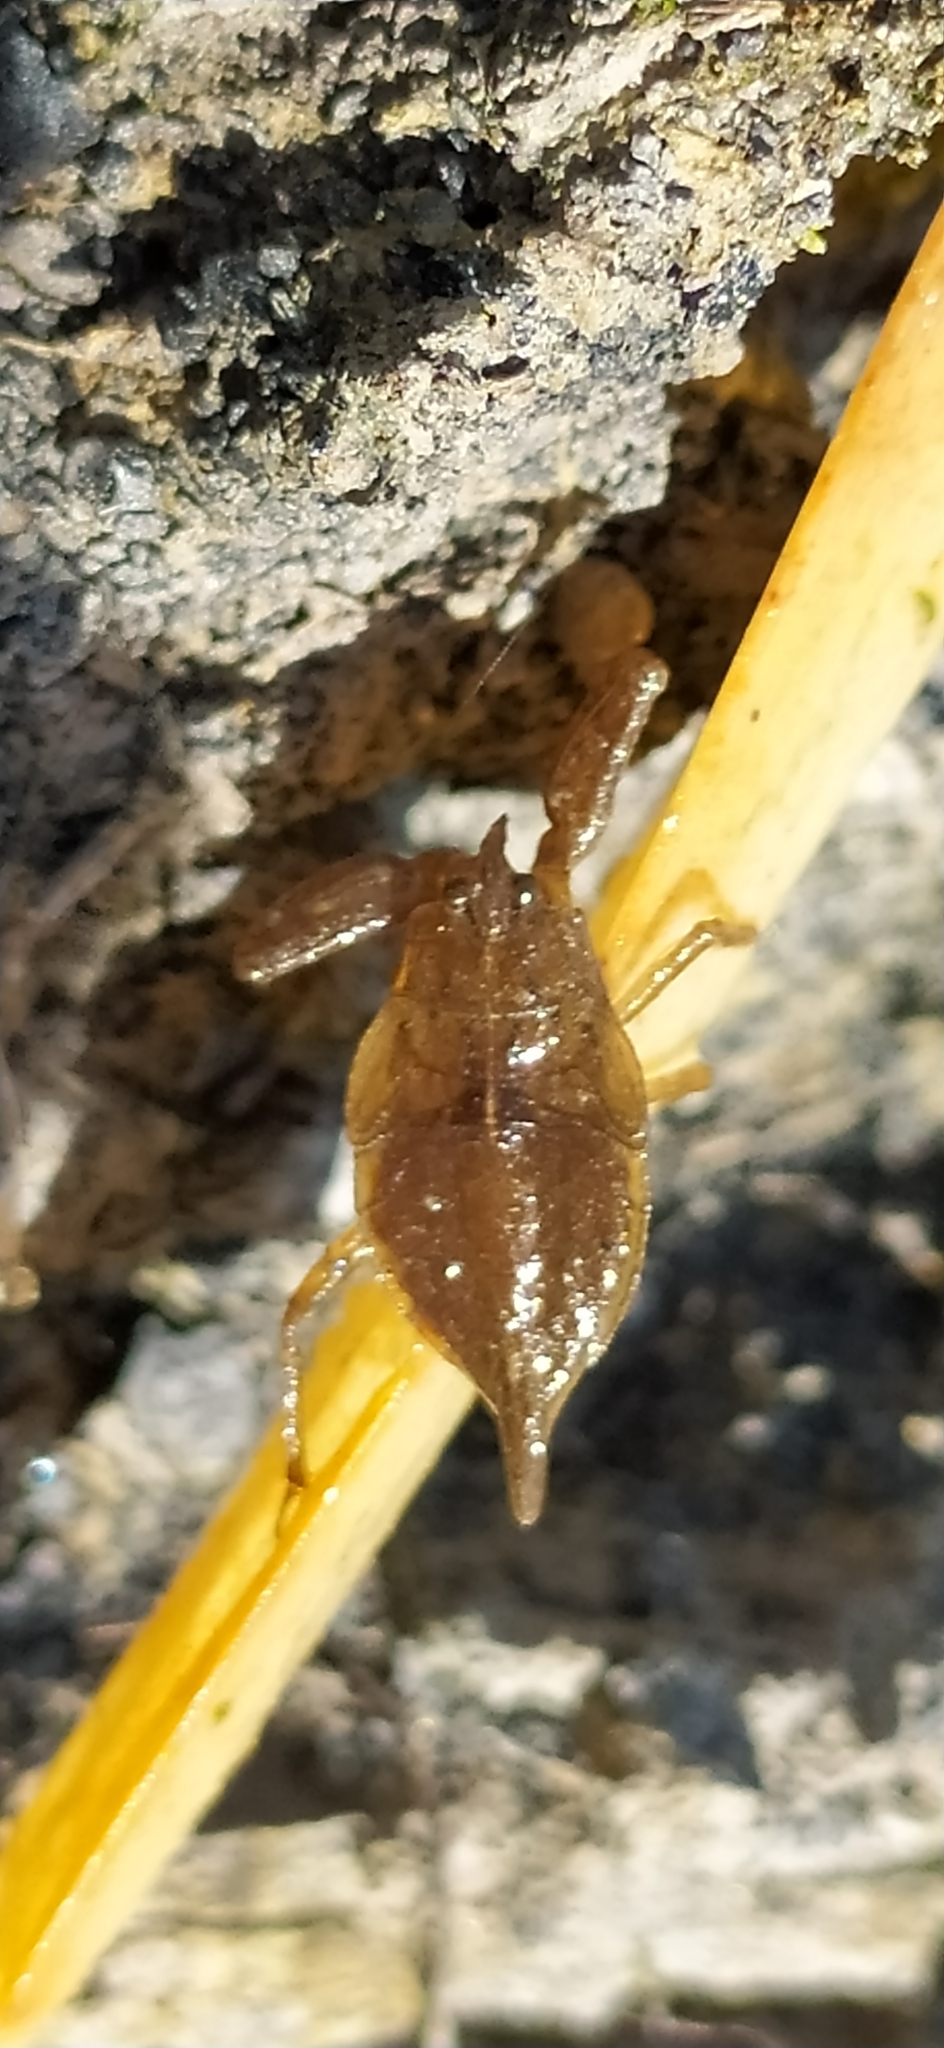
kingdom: Animalia
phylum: Arthropoda
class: Insecta
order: Hemiptera
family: Nepidae
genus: Nepa
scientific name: Nepa cinerea
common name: Water scorpion
